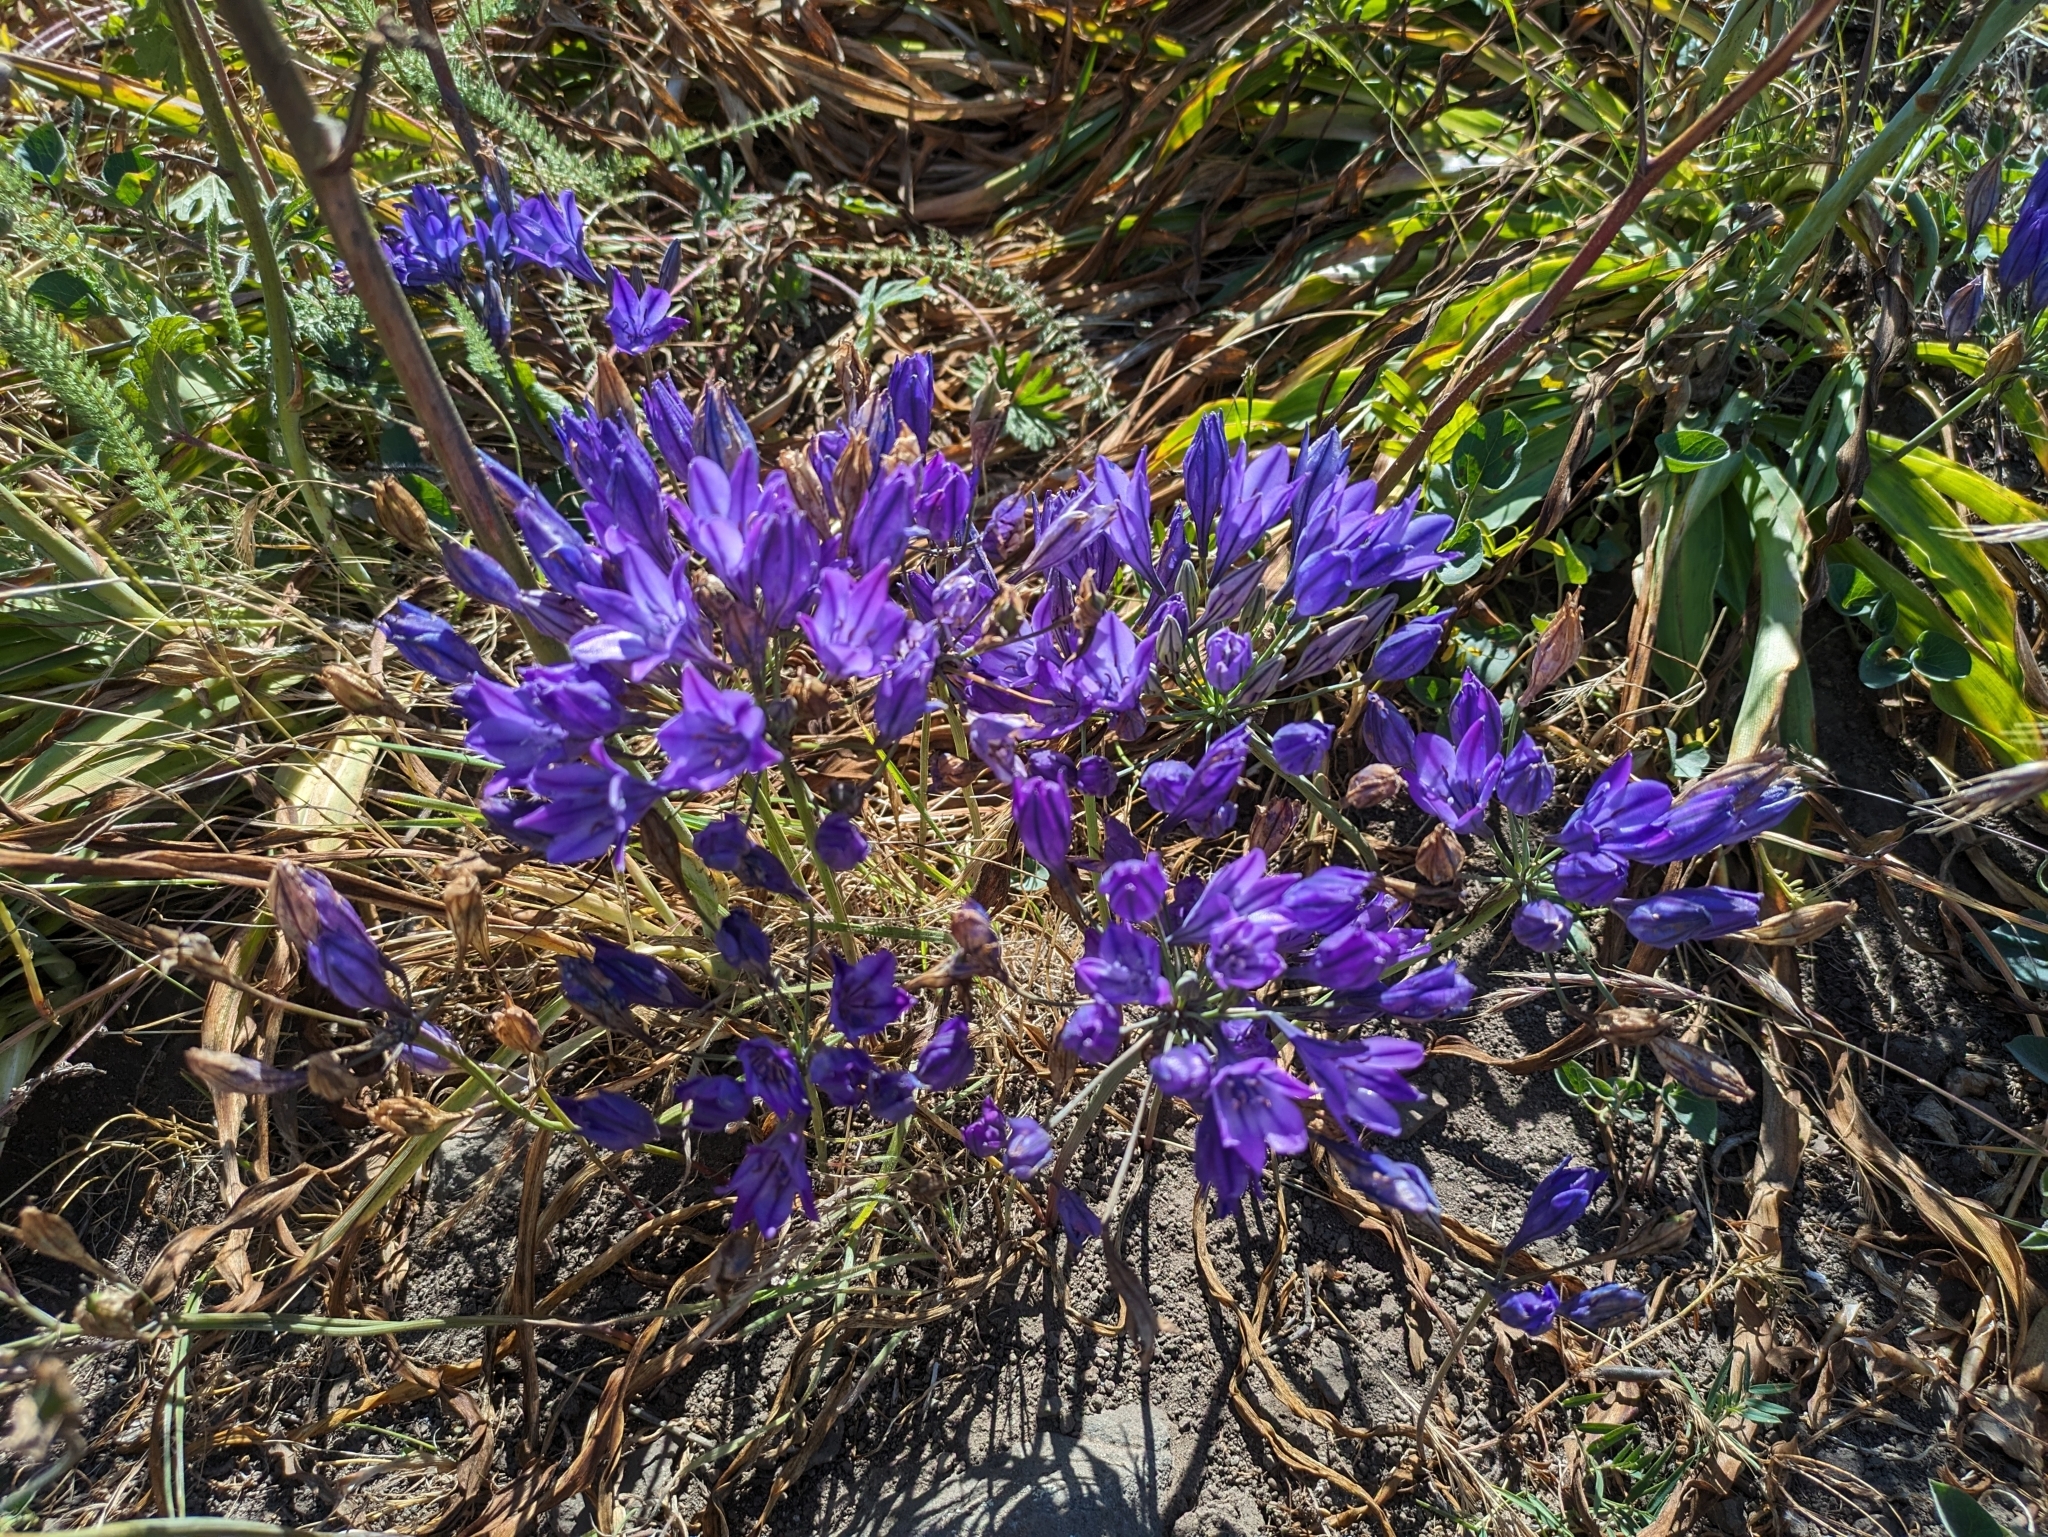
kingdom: Plantae
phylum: Tracheophyta
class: Liliopsida
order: Asparagales
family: Asparagaceae
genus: Triteleia
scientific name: Triteleia laxa
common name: Triplet-lily
